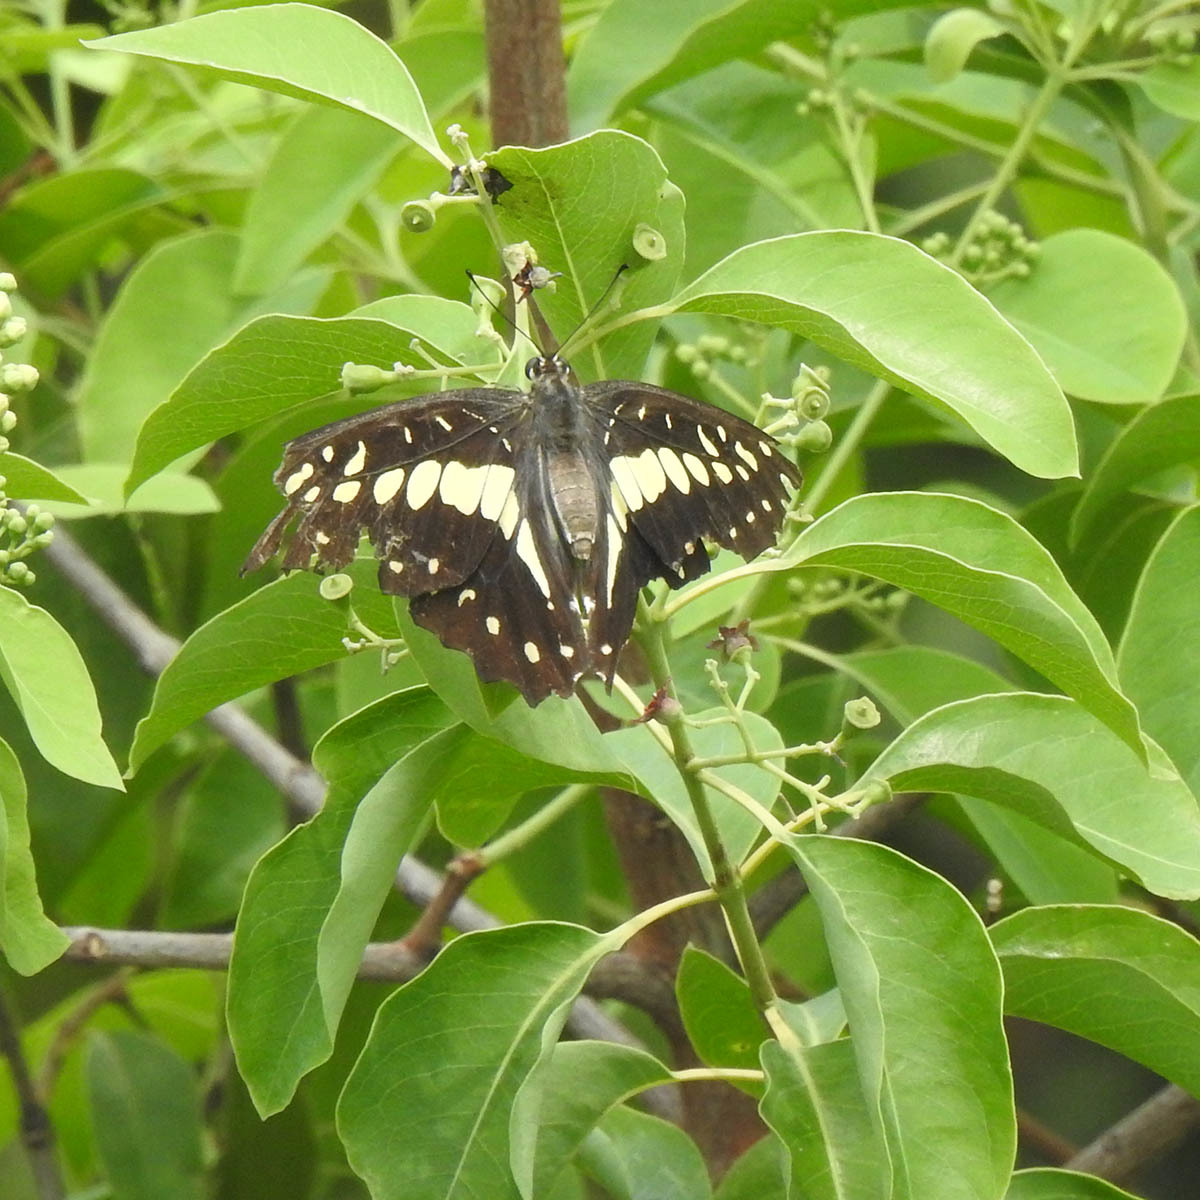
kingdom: Animalia
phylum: Arthropoda
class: Insecta
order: Lepidoptera
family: Papilionidae
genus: Graphium
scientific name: Graphium doson
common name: Common jay
